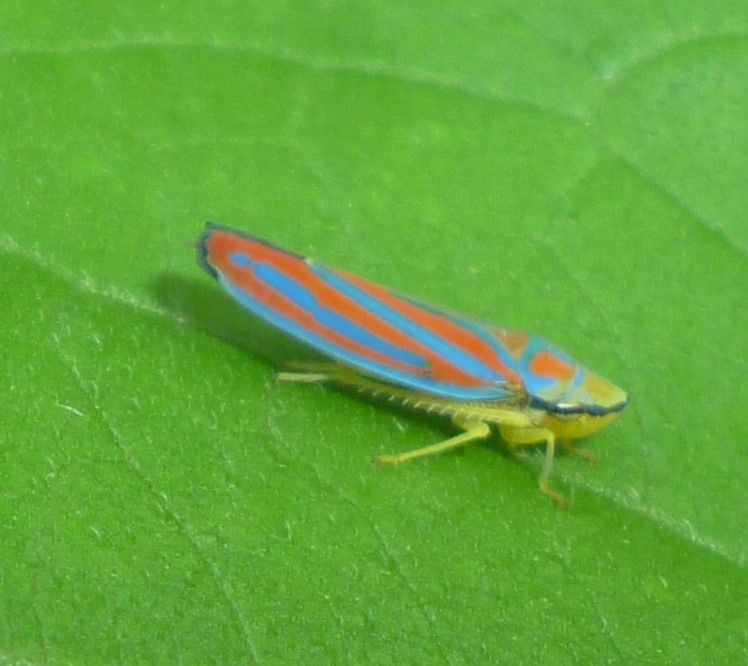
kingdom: Animalia
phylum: Arthropoda
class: Insecta
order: Hemiptera
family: Cicadellidae
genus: Graphocephala
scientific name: Graphocephala coccinea
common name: Candy-striped leafhopper
